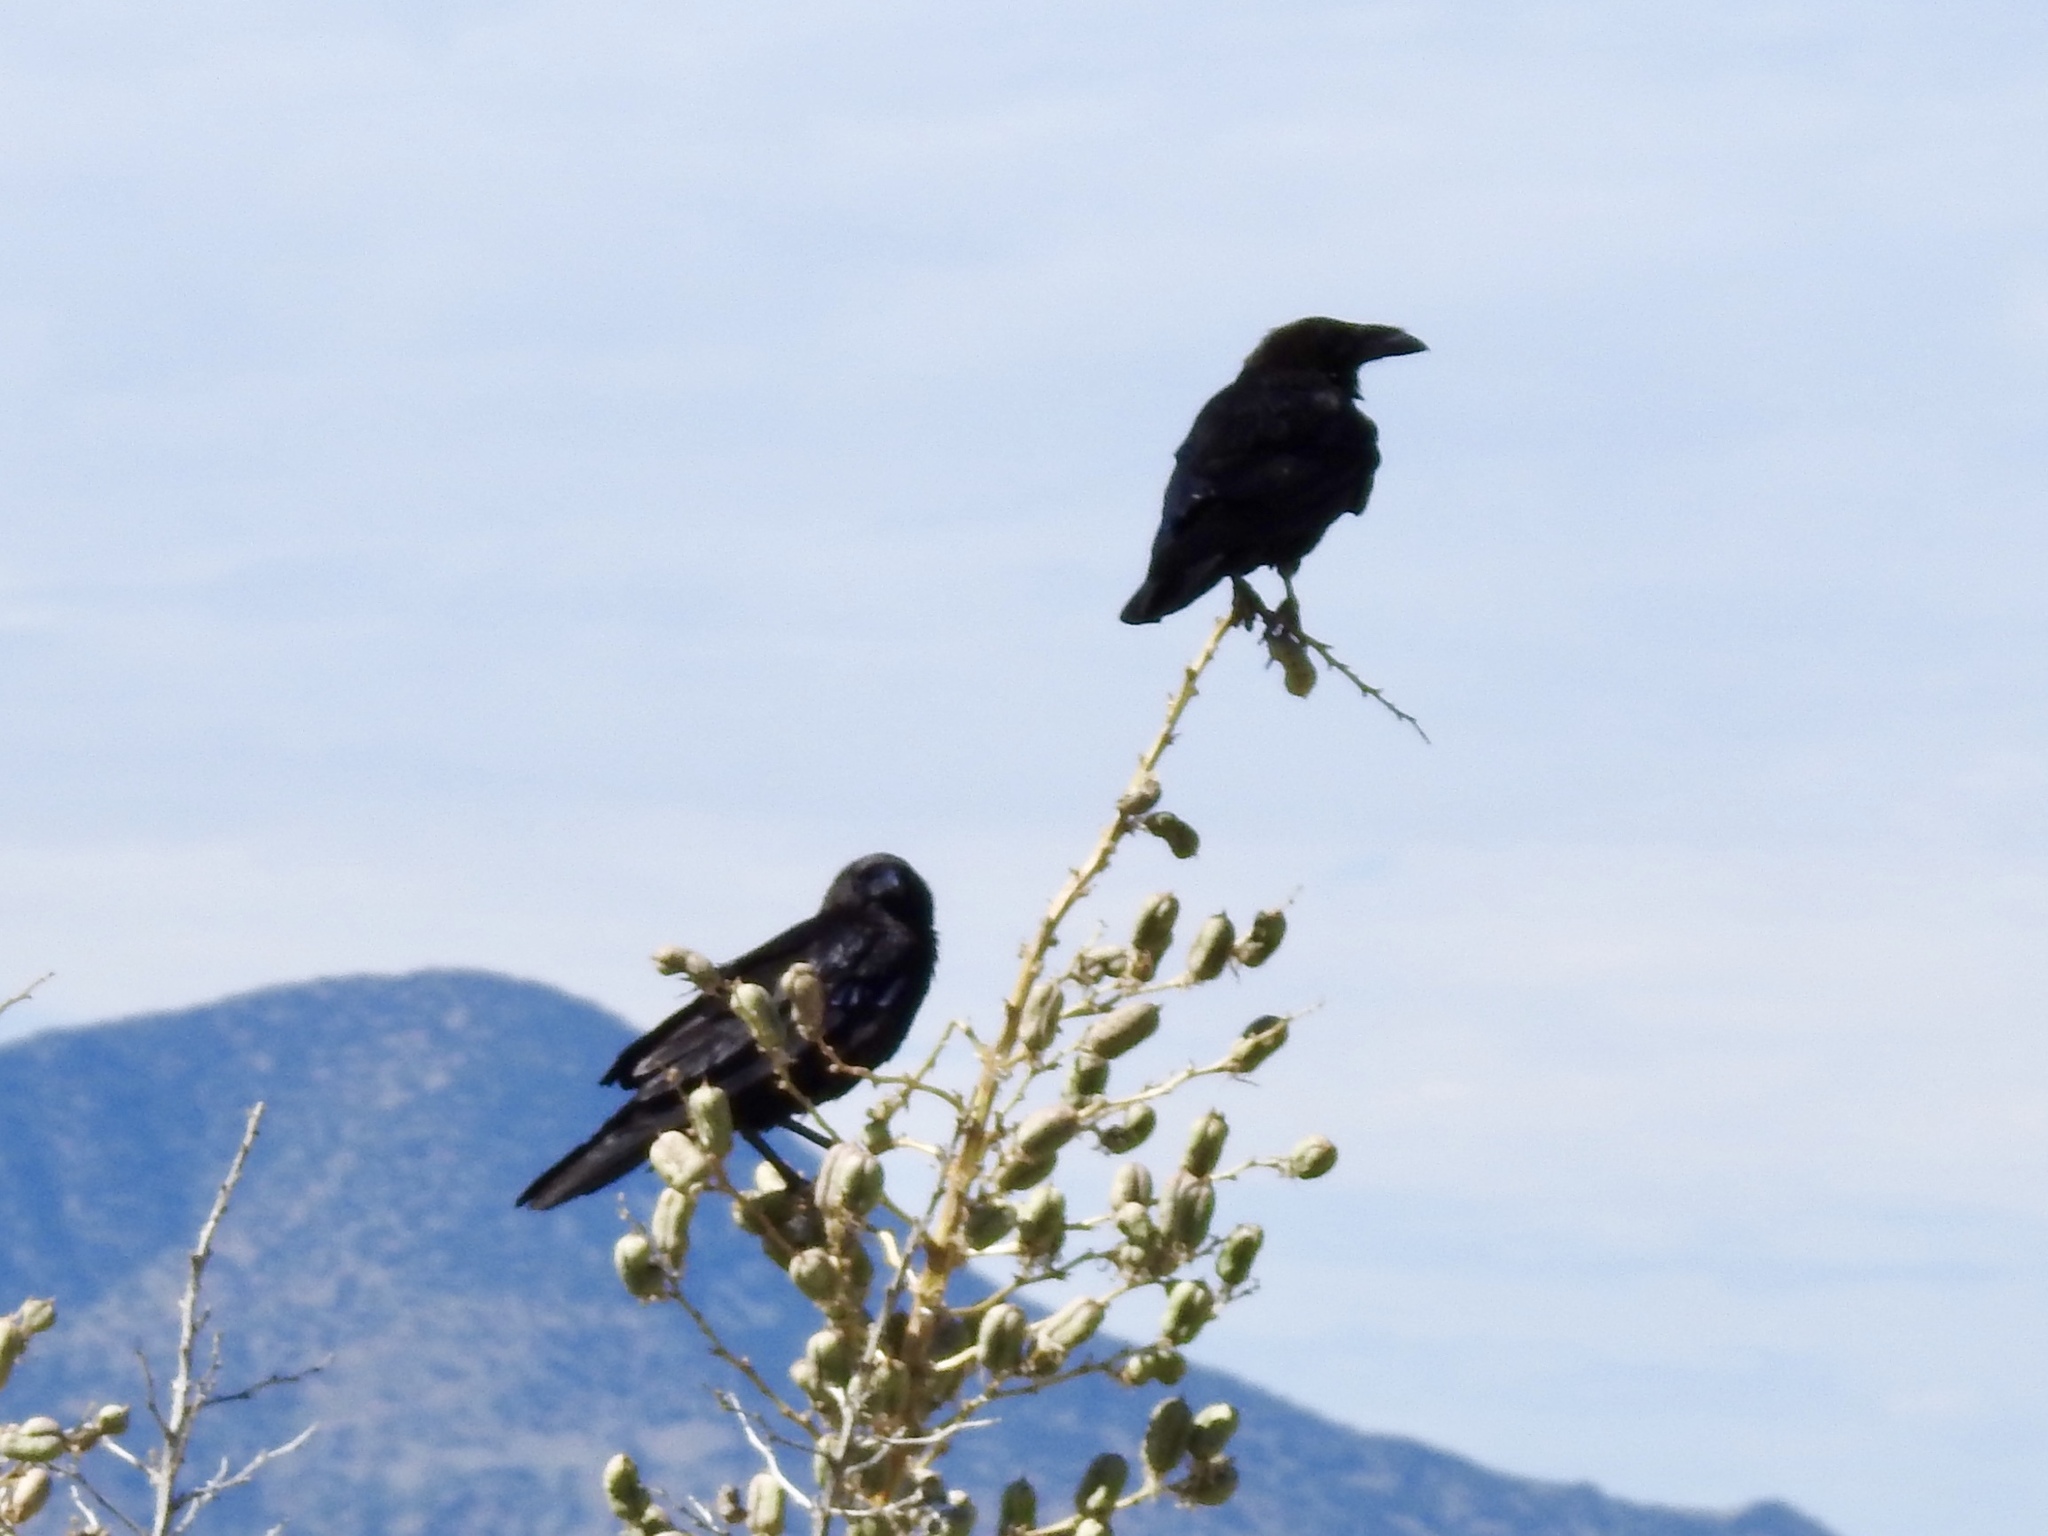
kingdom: Animalia
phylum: Chordata
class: Aves
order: Passeriformes
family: Corvidae
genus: Corvus
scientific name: Corvus corax
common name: Common raven
